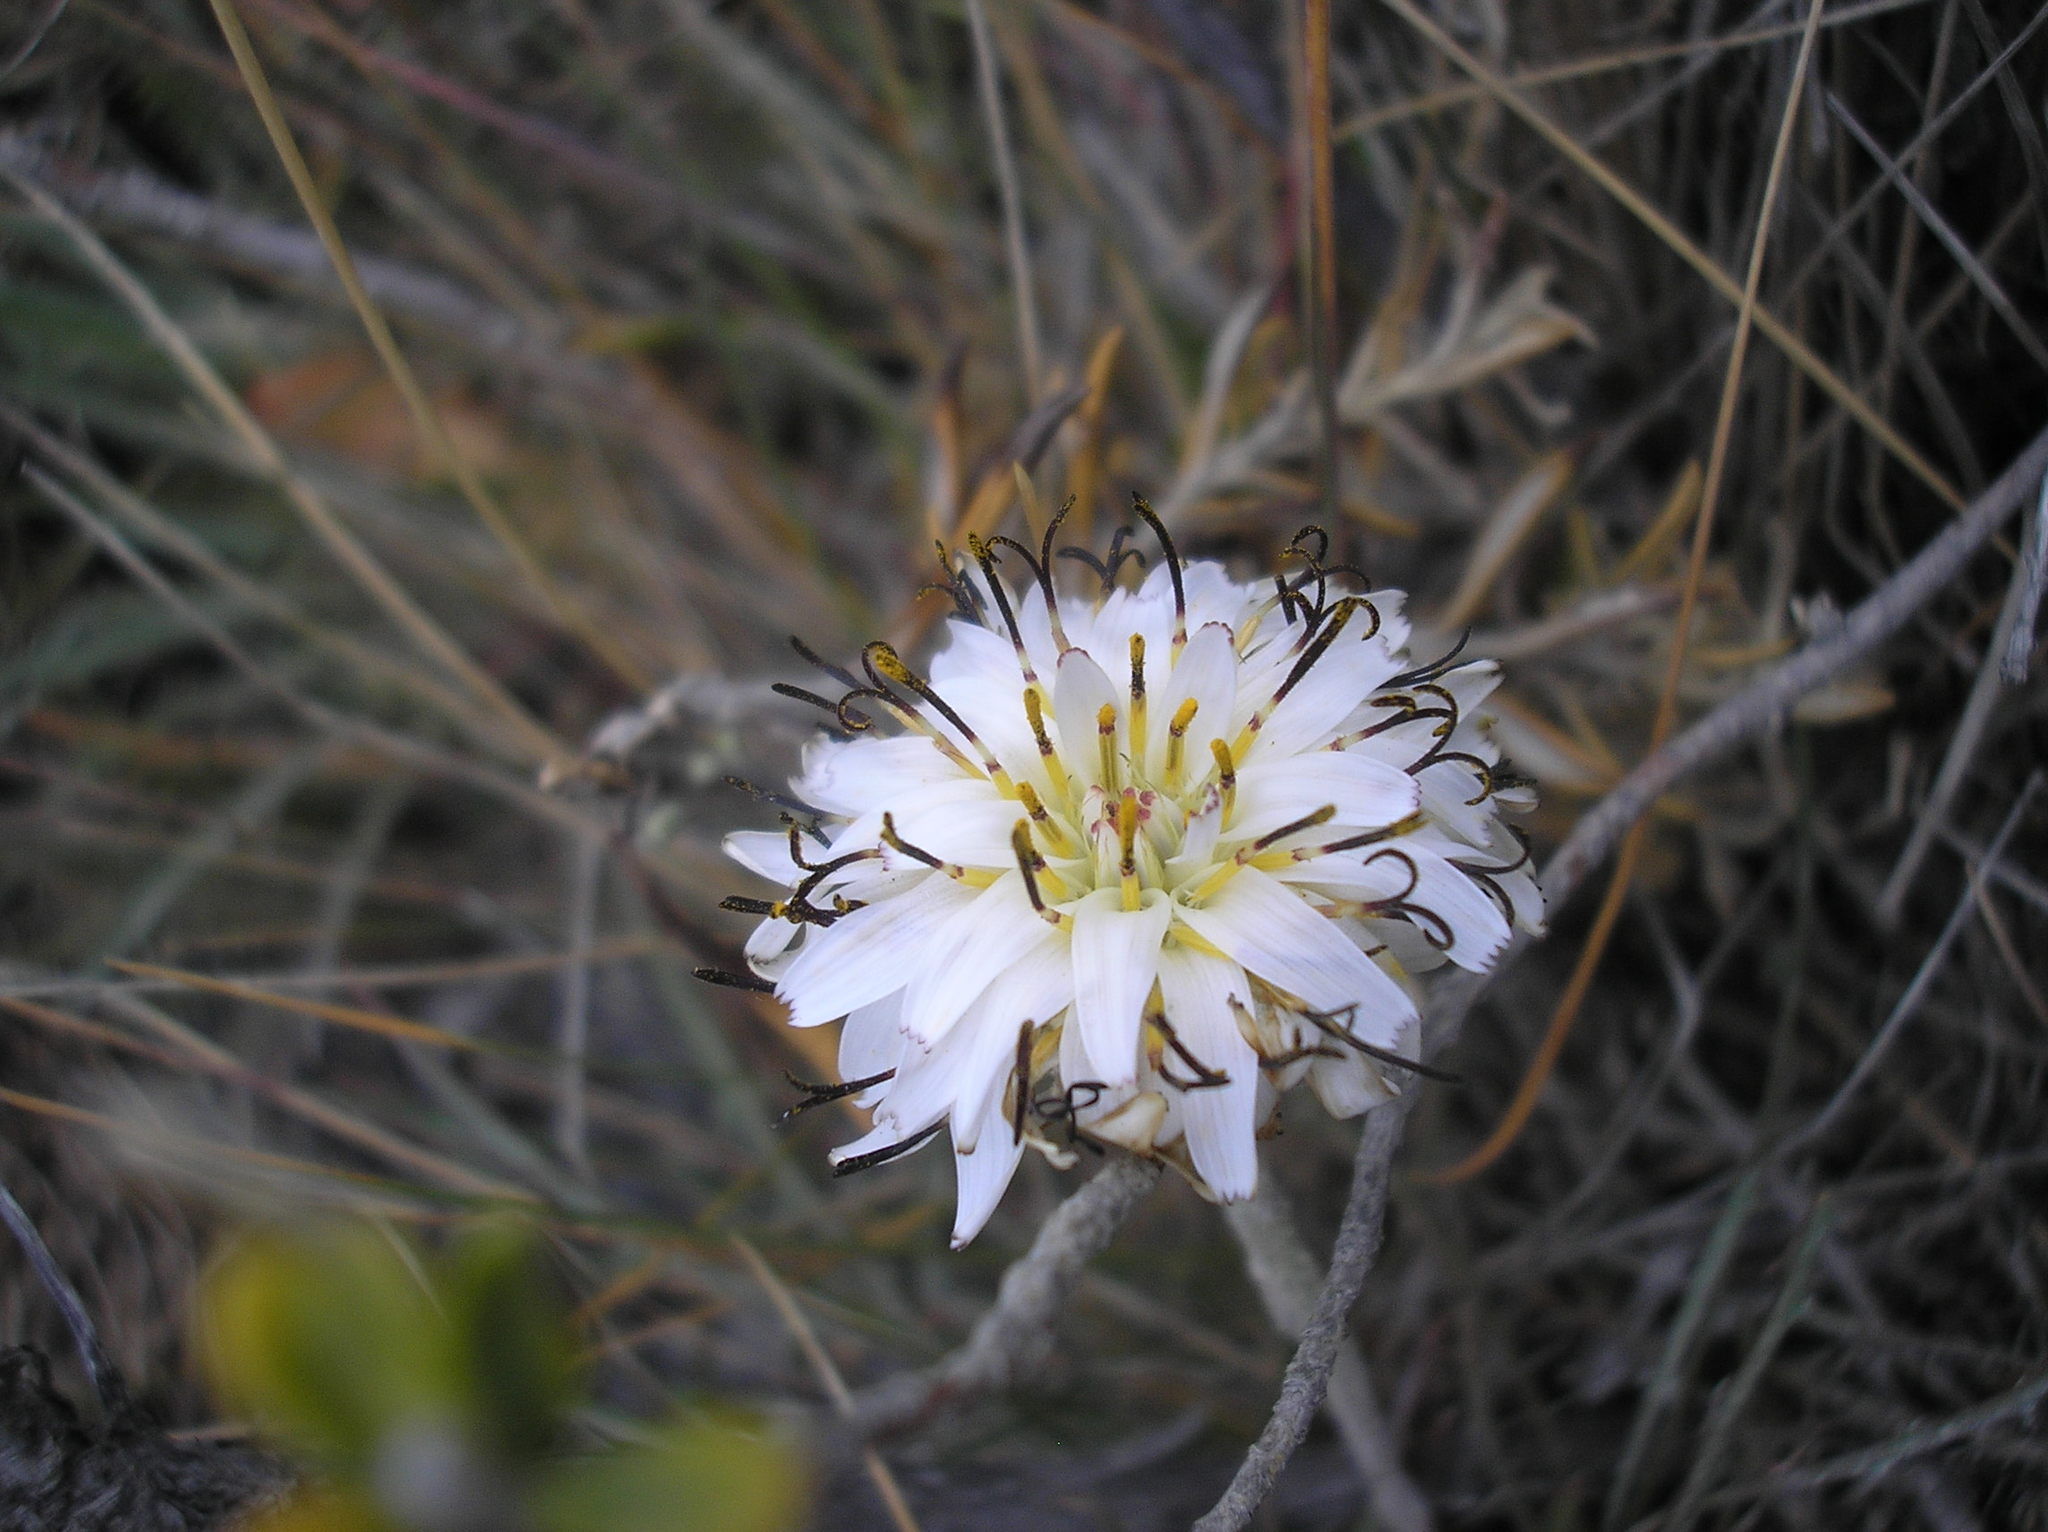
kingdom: Plantae
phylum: Tracheophyta
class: Magnoliopsida
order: Asterales
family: Asteraceae
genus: Hypochaeris
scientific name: Hypochaeris incana
